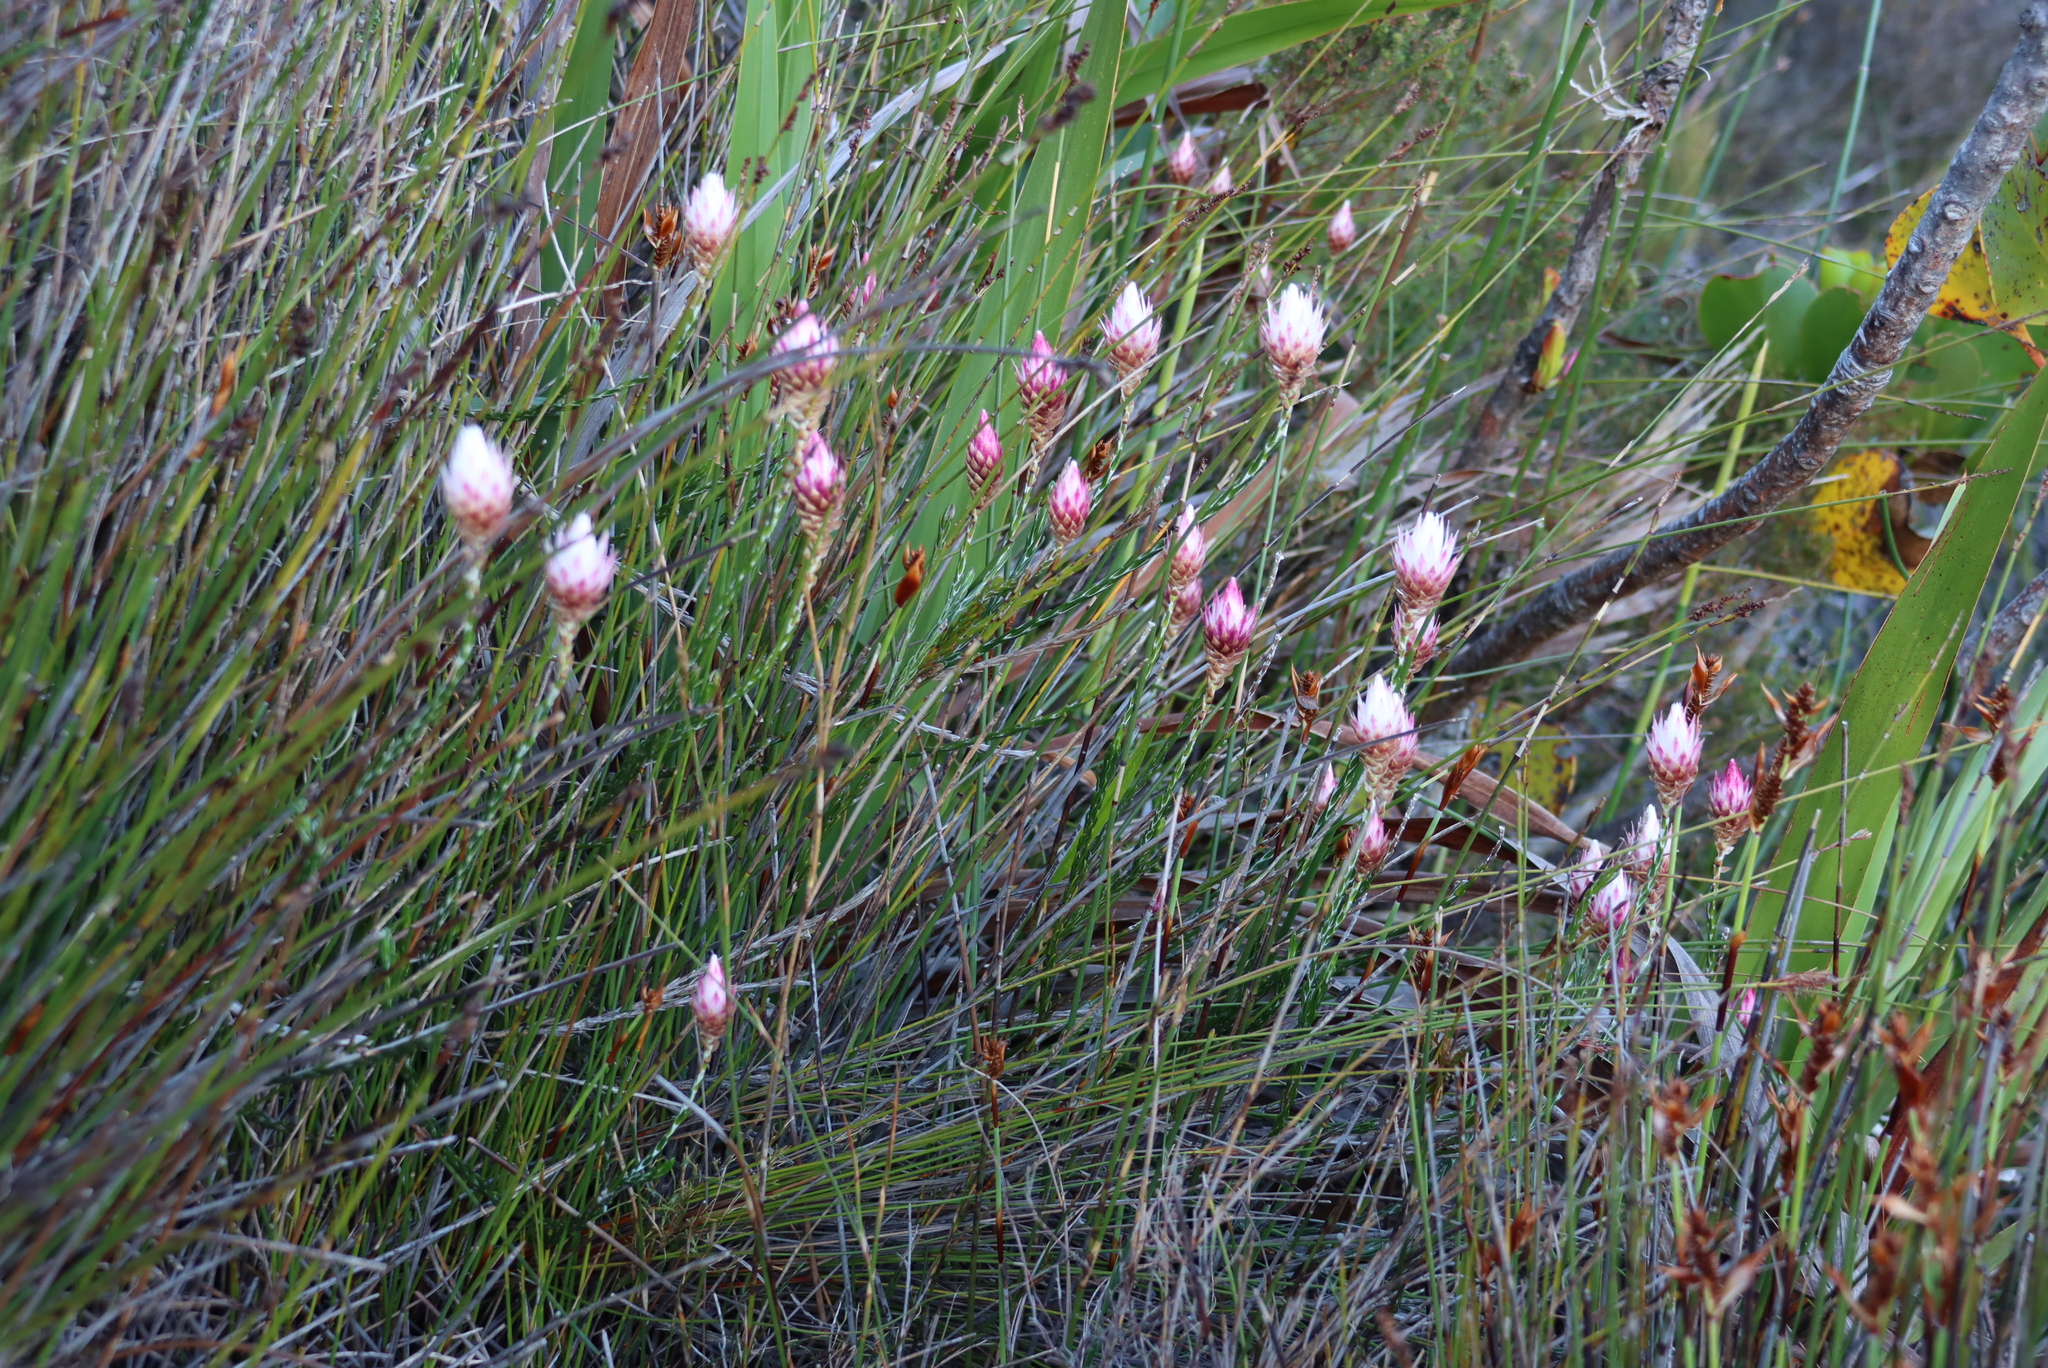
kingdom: Plantae
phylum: Tracheophyta
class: Magnoliopsida
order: Asterales
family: Asteraceae
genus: Edmondia
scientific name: Edmondia pinifolia
